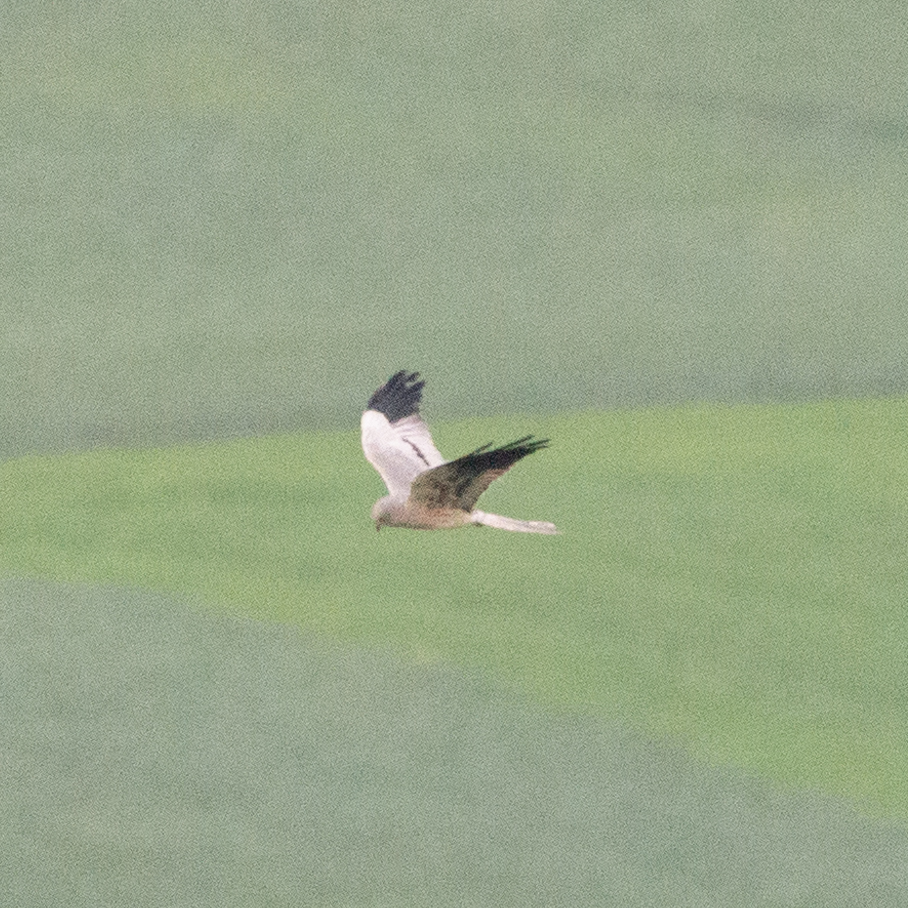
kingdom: Animalia
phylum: Chordata
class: Aves
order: Accipitriformes
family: Accipitridae
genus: Circus
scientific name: Circus pygargus
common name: Montagu's harrier
